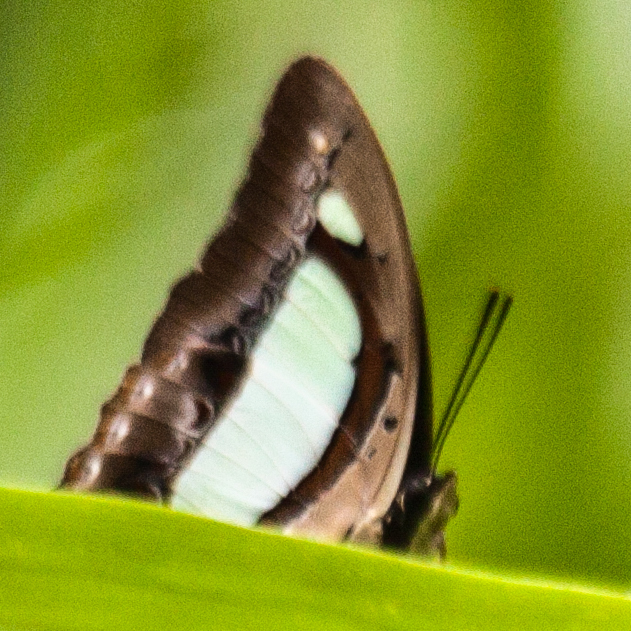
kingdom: Animalia
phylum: Arthropoda
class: Insecta
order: Lepidoptera
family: Nymphalidae
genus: Polyura
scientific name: Polyura arja
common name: Pallid nawab
